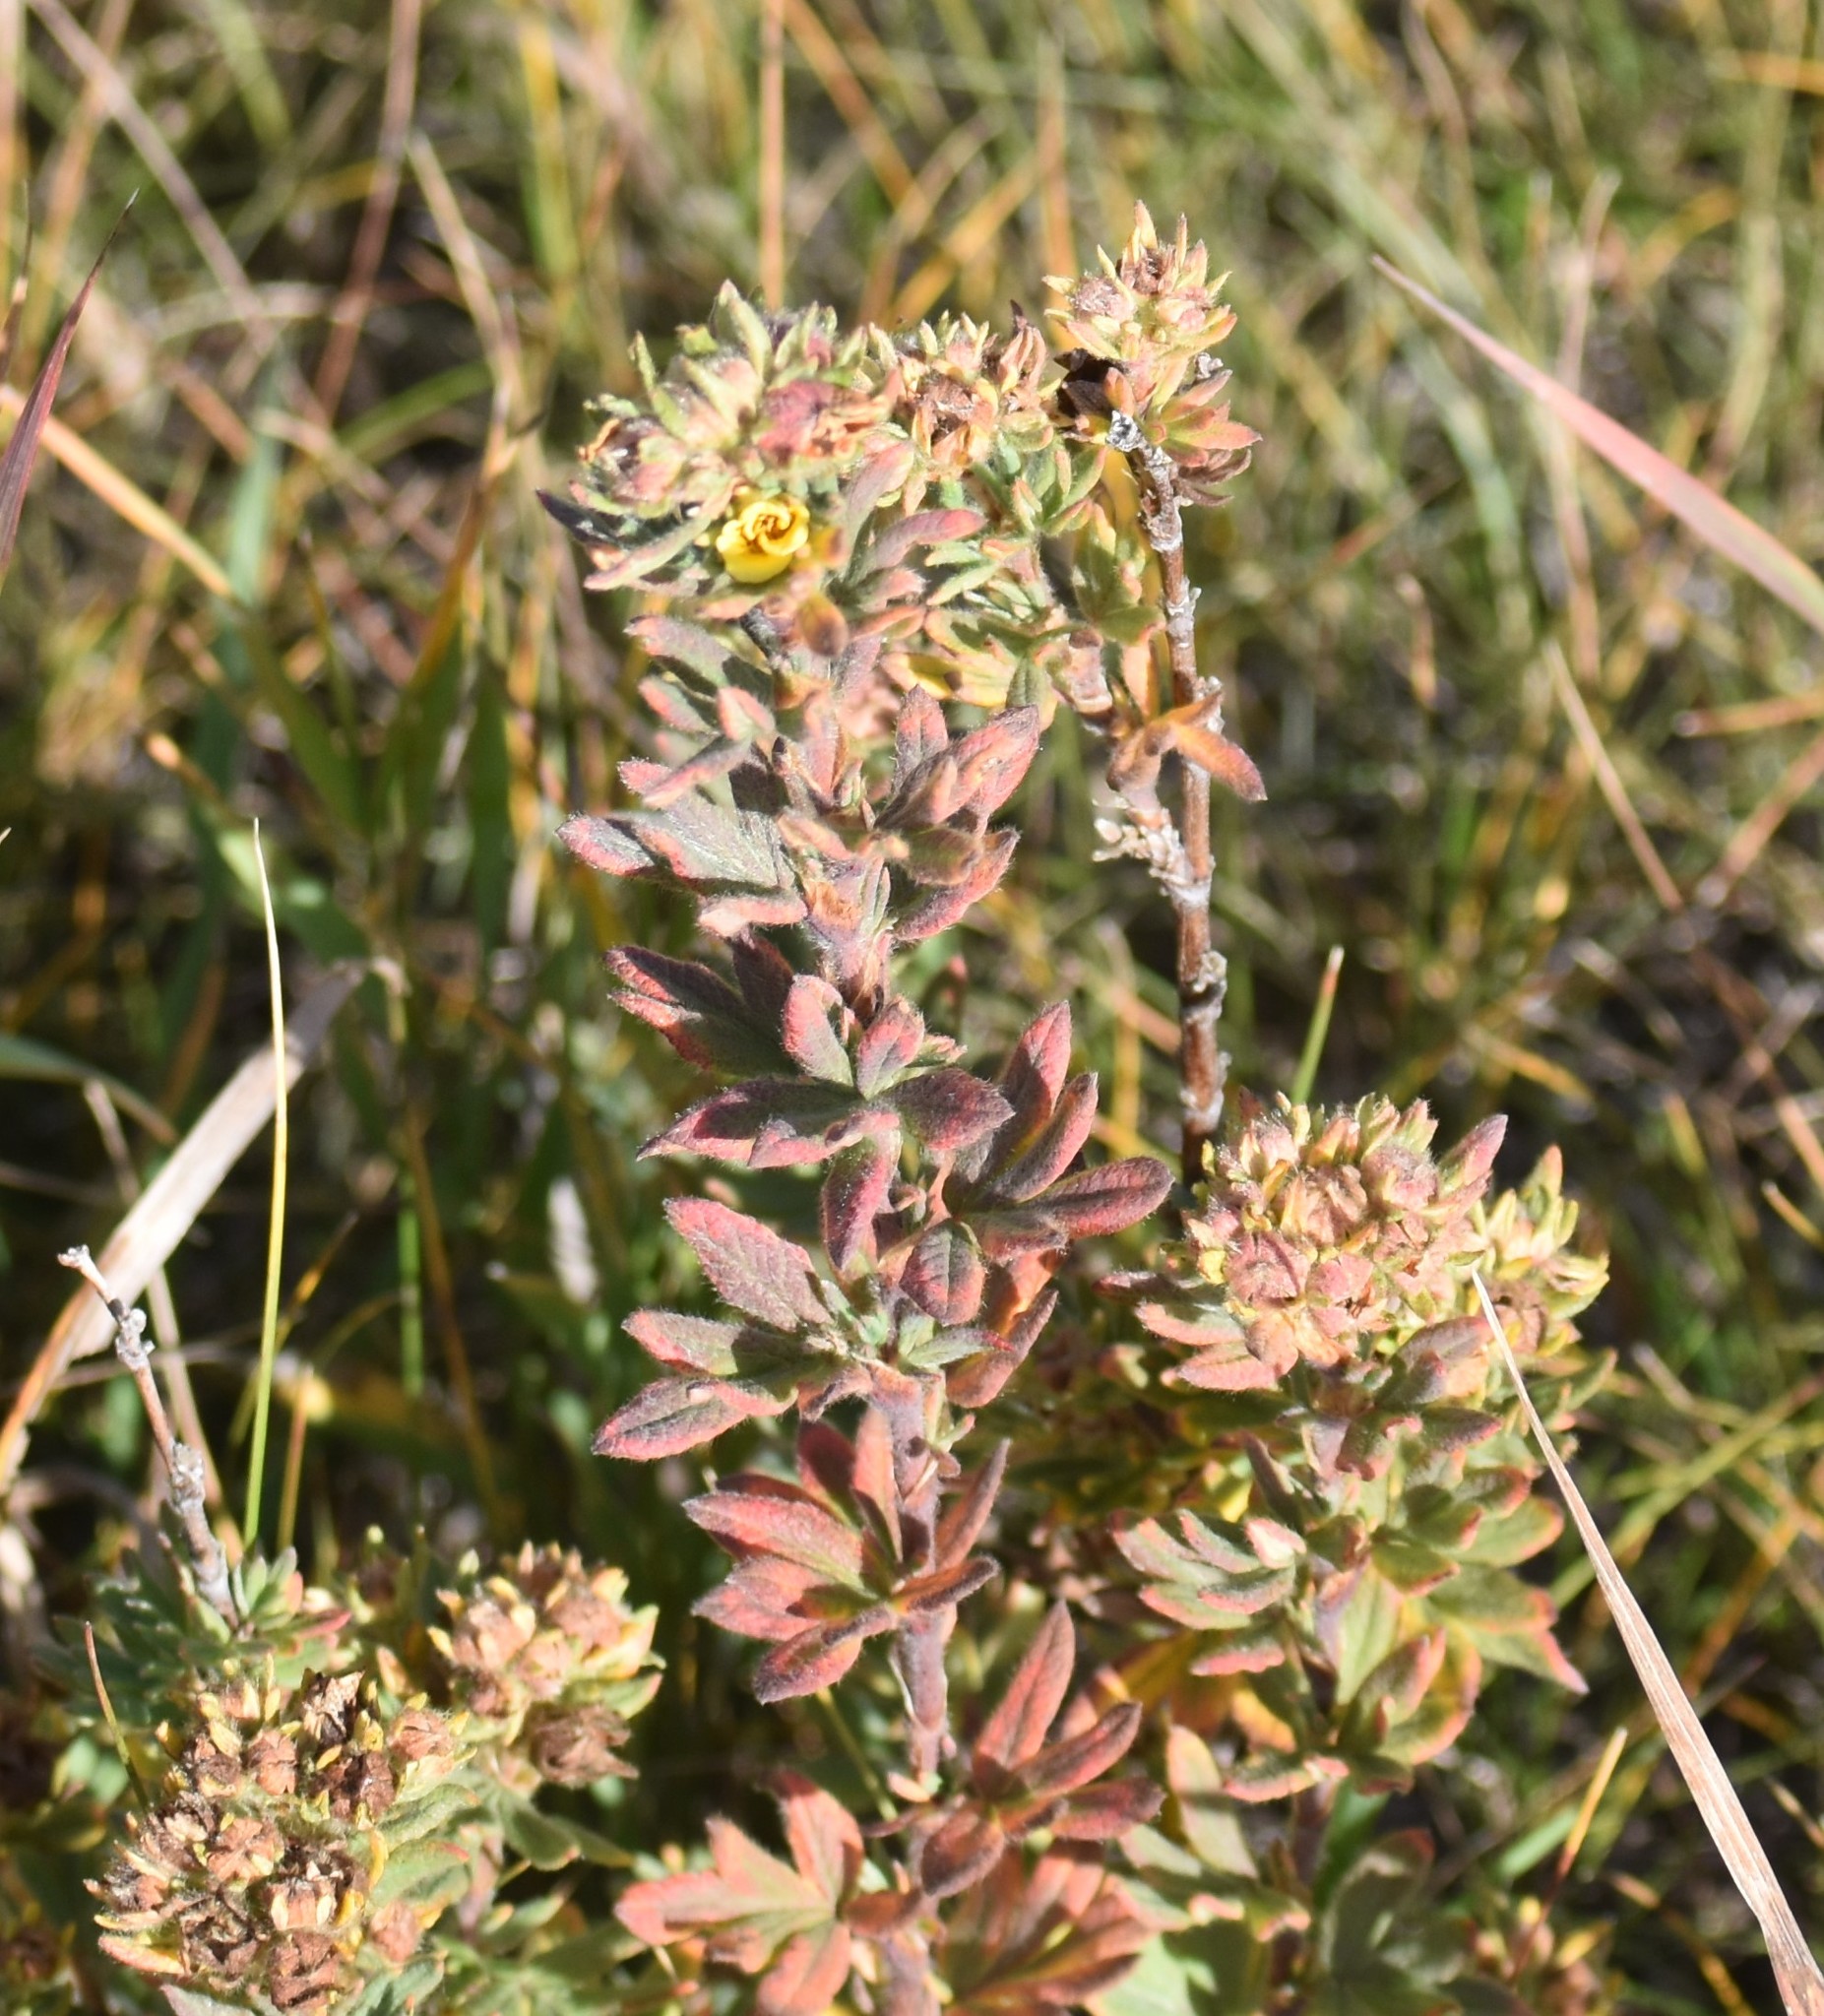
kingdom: Plantae
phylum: Tracheophyta
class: Magnoliopsida
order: Rosales
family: Rosaceae
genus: Dasiphora
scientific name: Dasiphora fruticosa
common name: Shrubby cinquefoil
